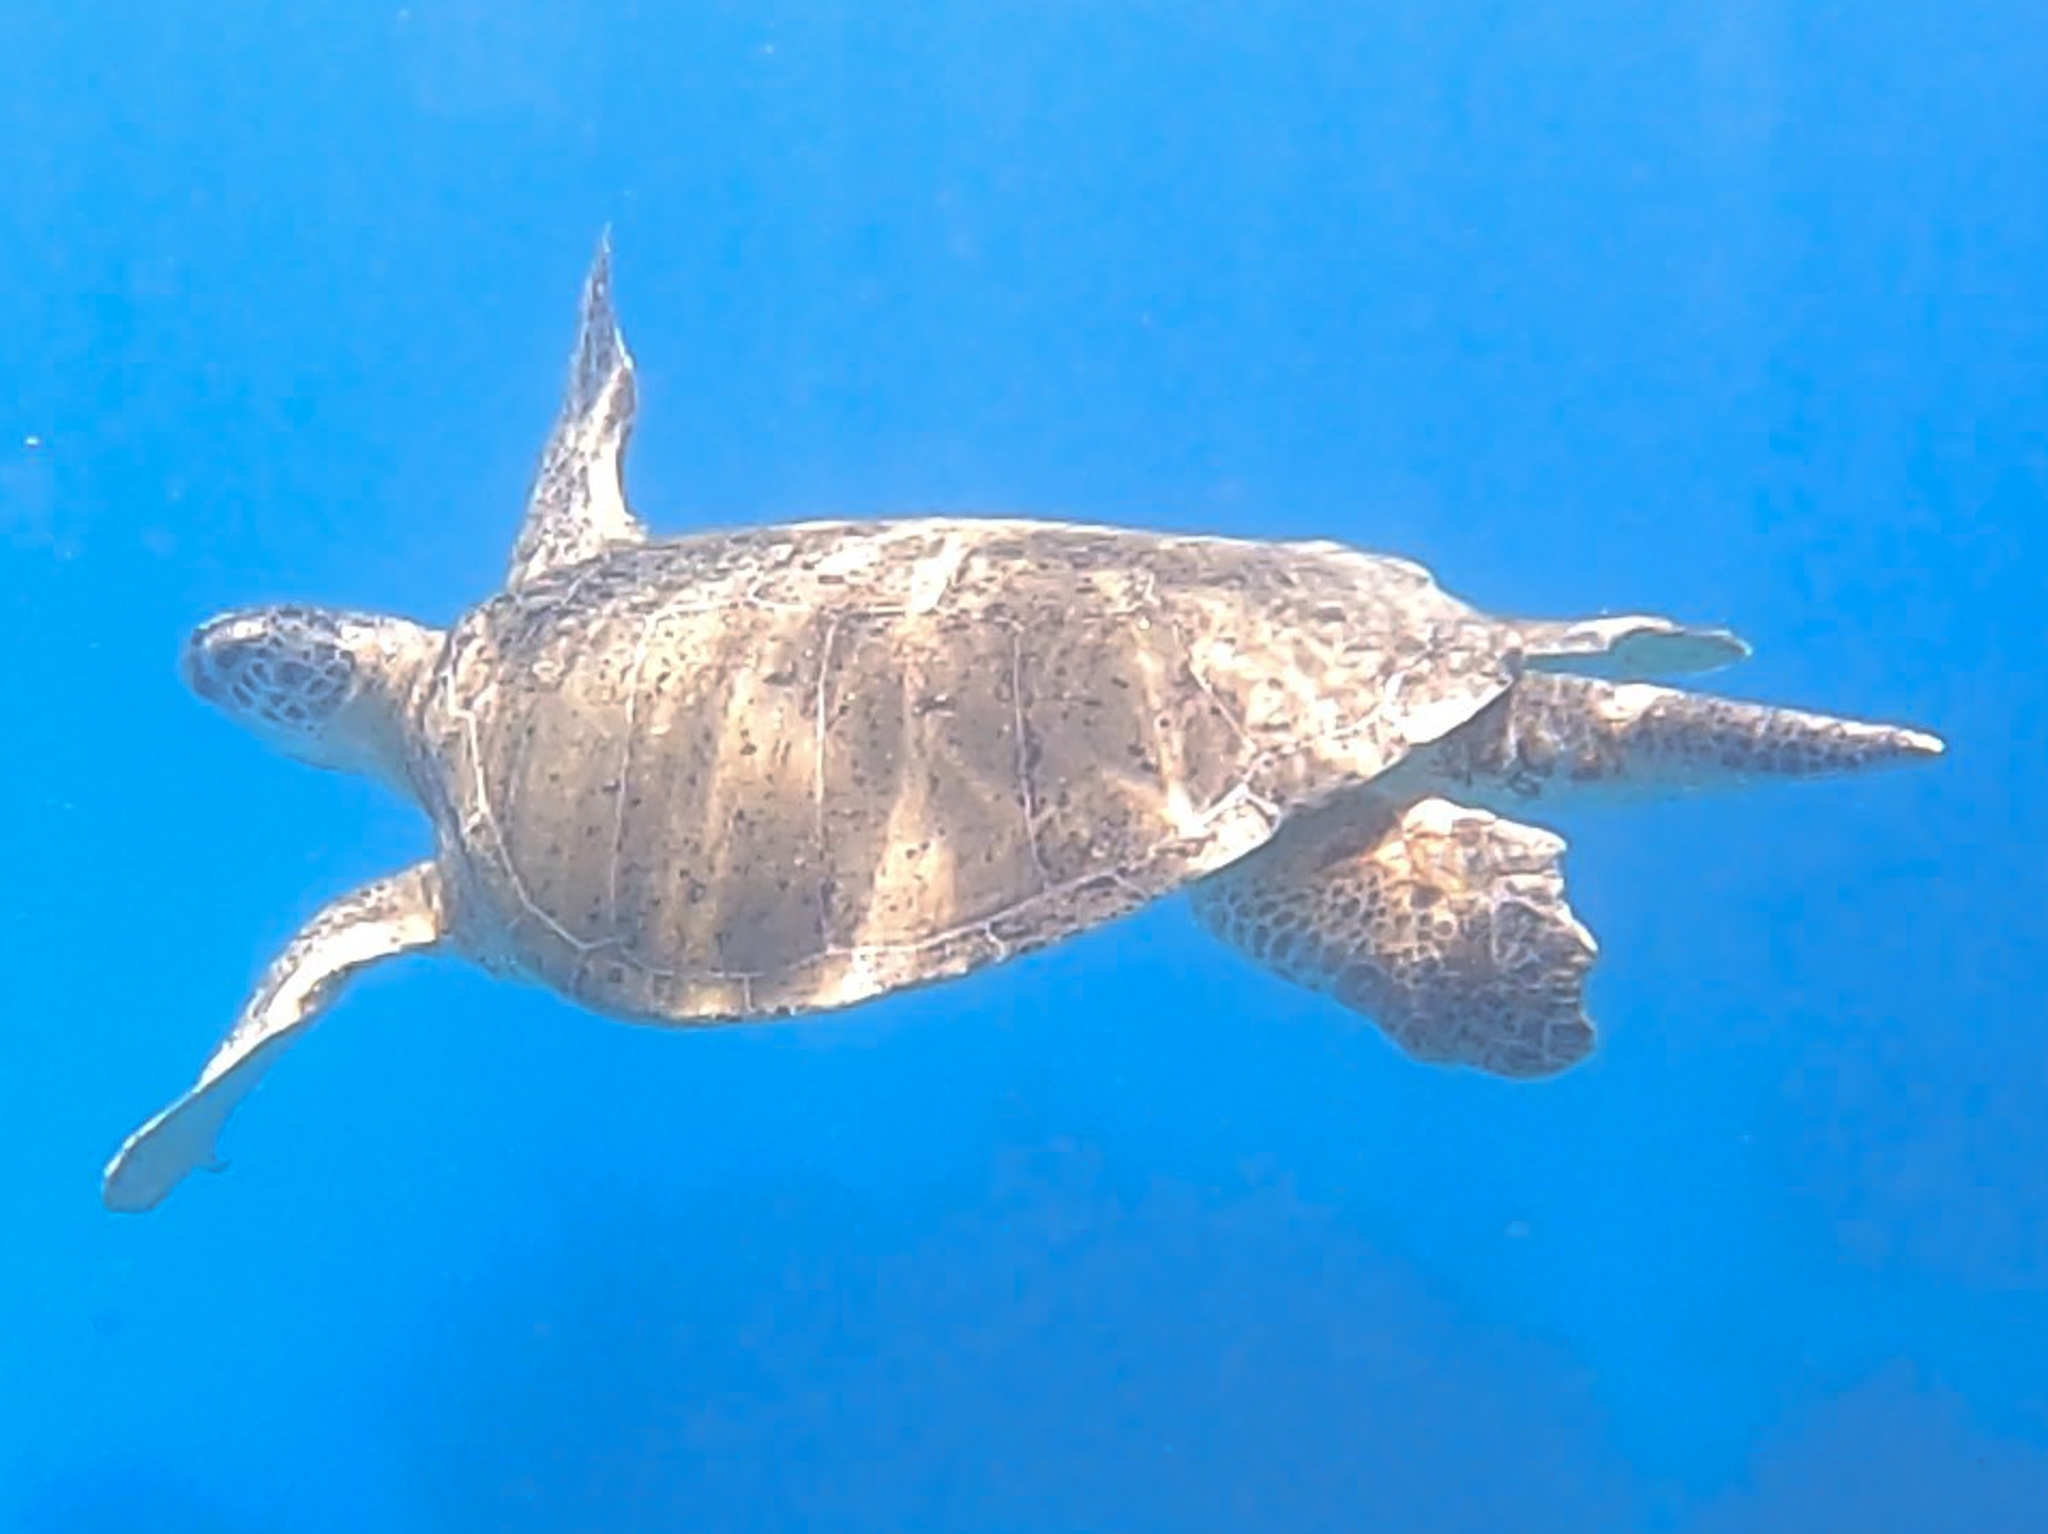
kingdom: Animalia
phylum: Chordata
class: Testudines
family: Cheloniidae
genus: Chelonia
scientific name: Chelonia mydas
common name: Green turtle
